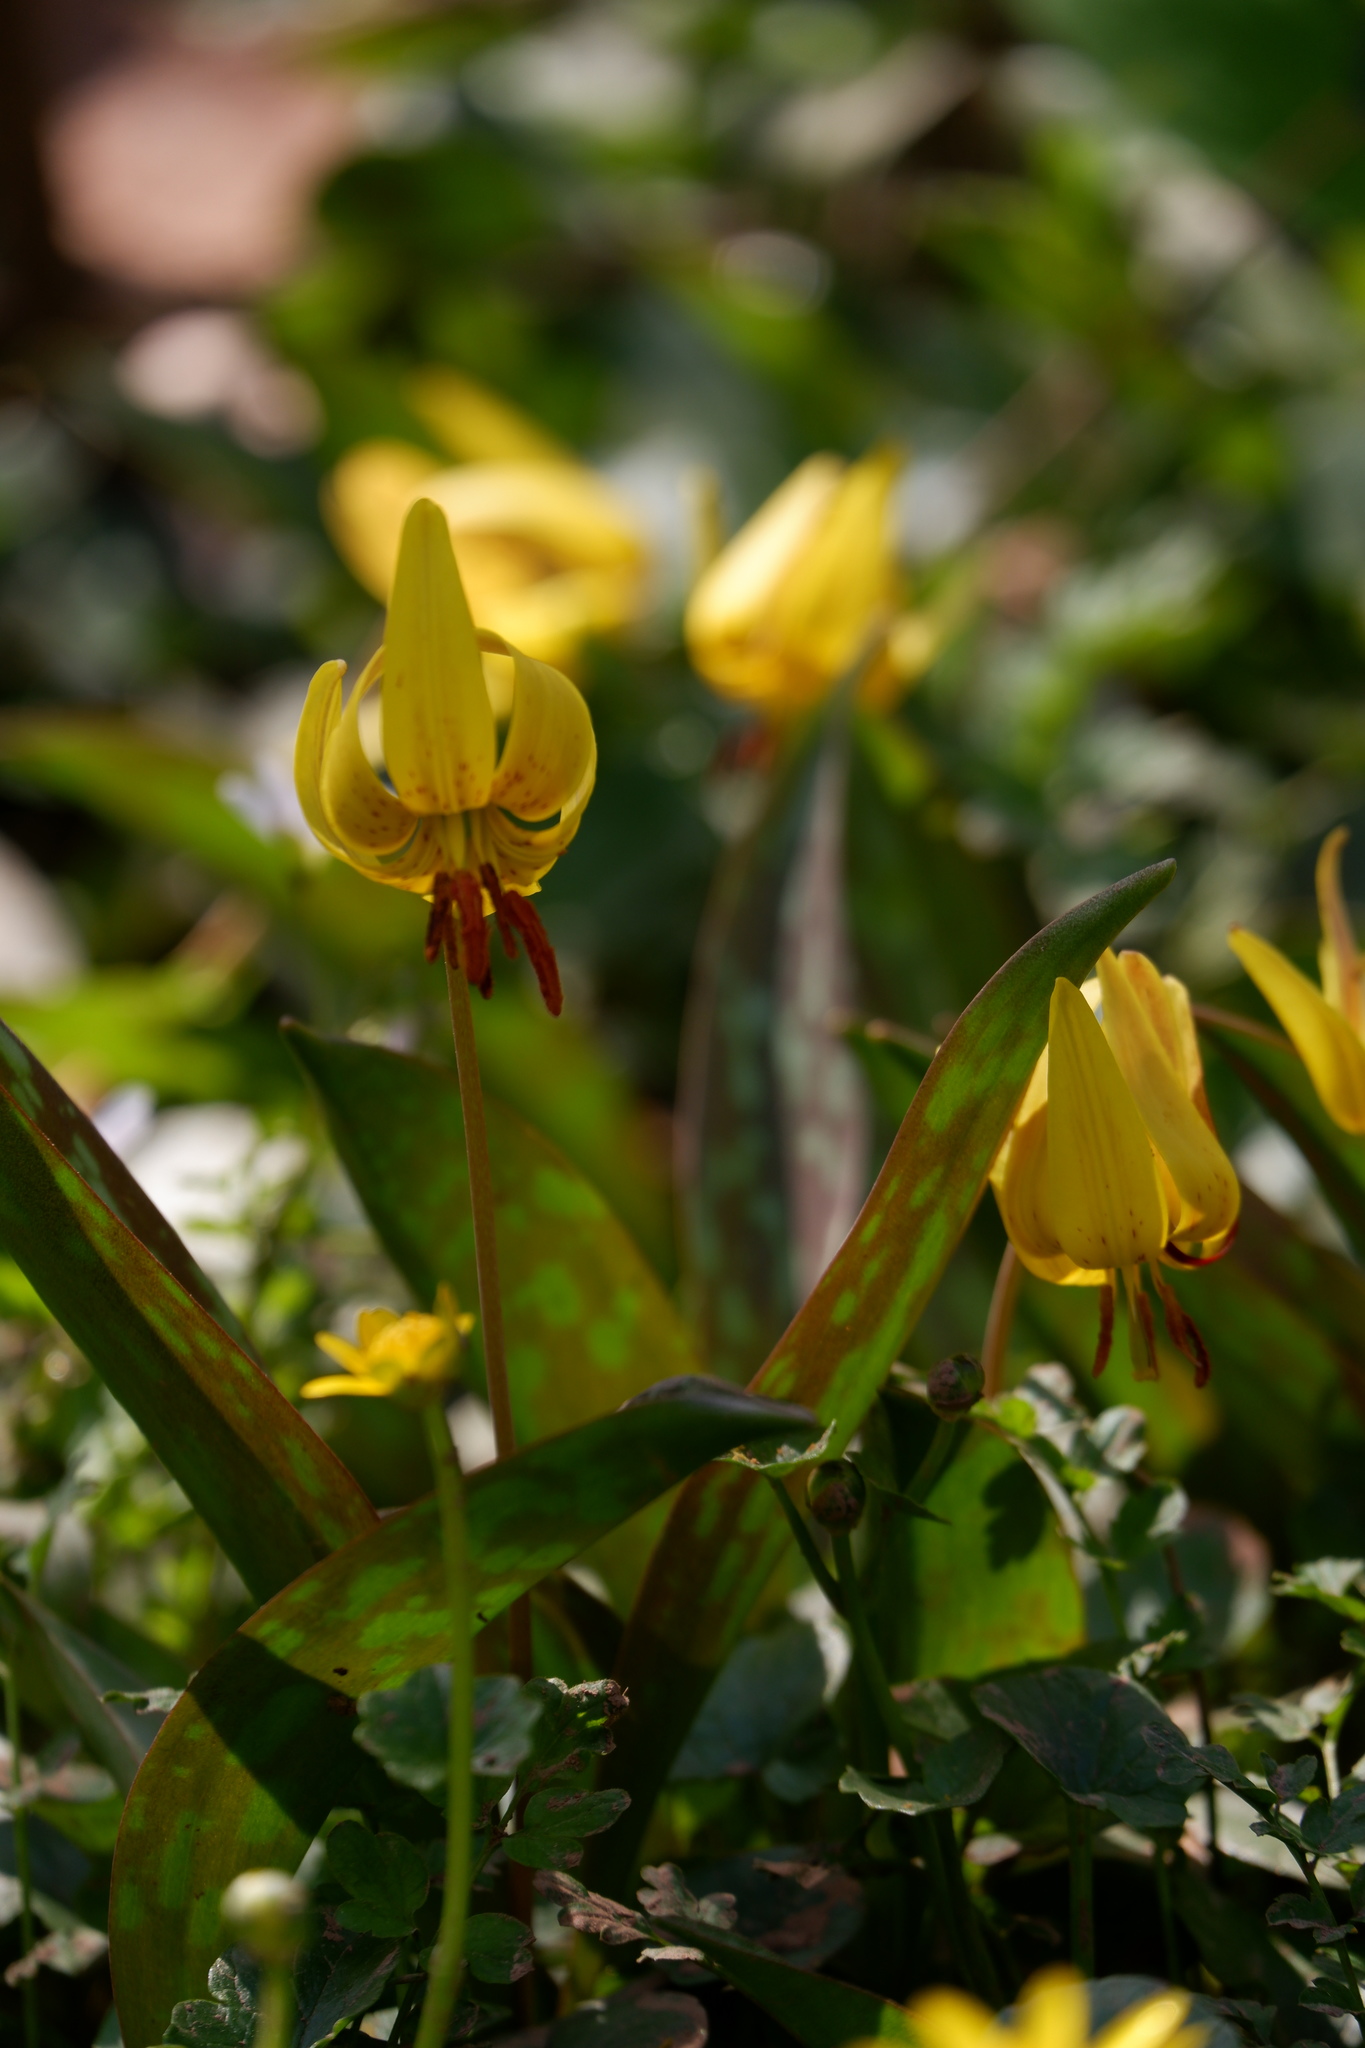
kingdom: Plantae
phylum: Tracheophyta
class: Liliopsida
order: Liliales
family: Liliaceae
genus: Erythronium
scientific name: Erythronium americanum
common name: Yellow adder's-tongue
